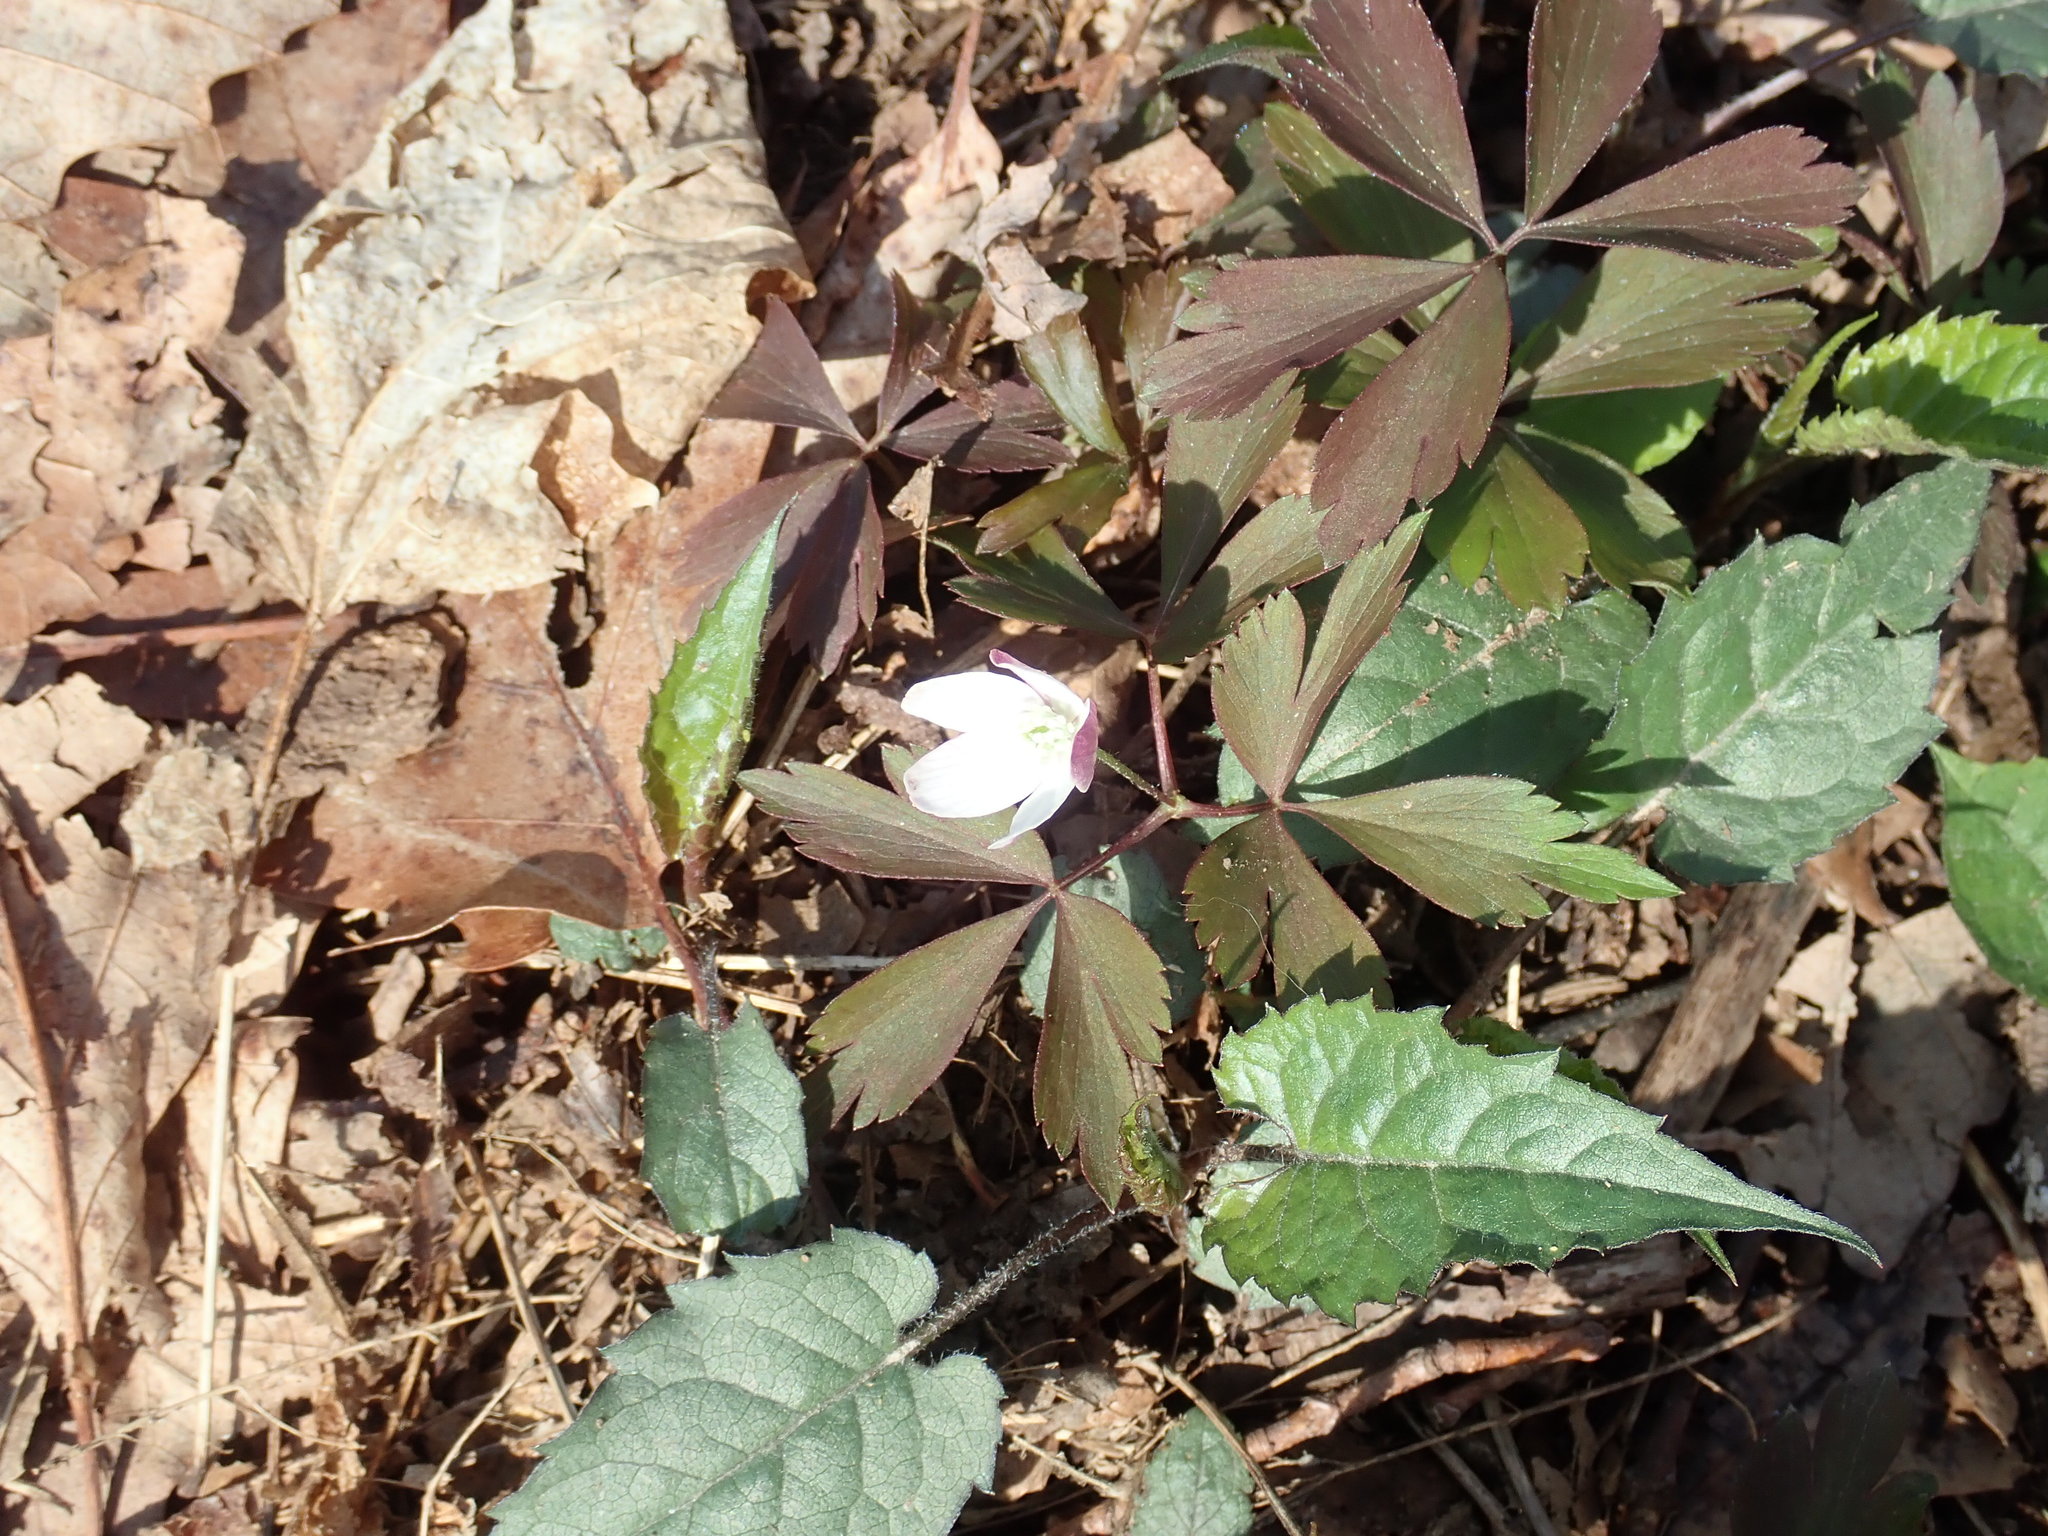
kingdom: Plantae
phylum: Tracheophyta
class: Magnoliopsida
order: Ranunculales
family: Ranunculaceae
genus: Anemone
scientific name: Anemone quinquefolia
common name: Wood anemone
